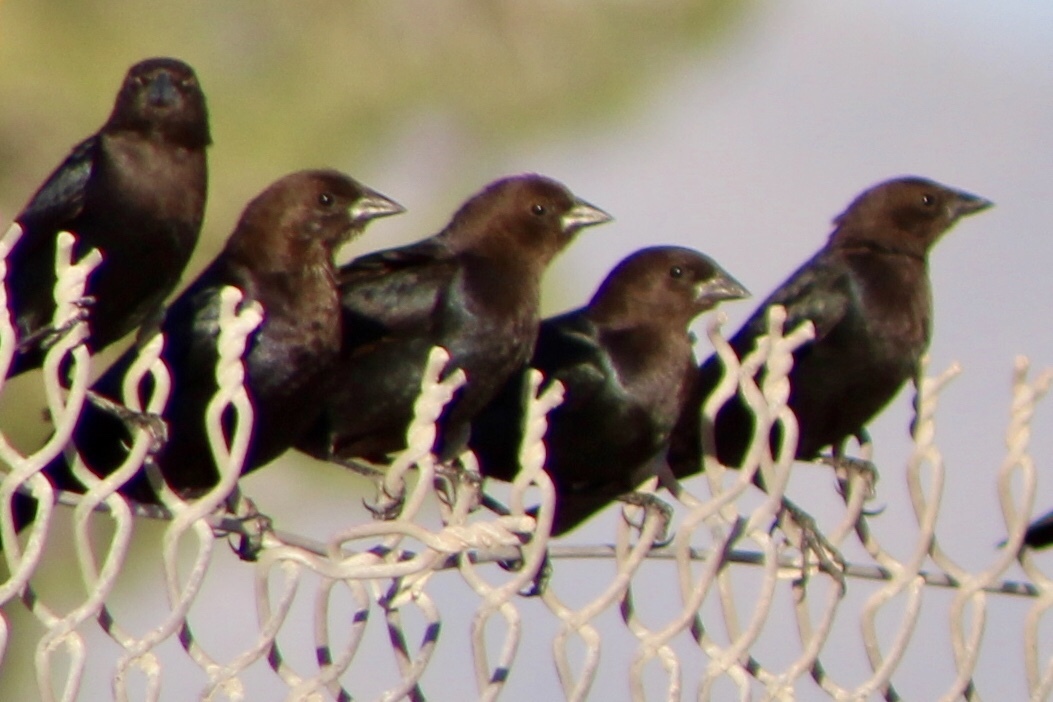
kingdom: Animalia
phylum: Chordata
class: Aves
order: Passeriformes
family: Icteridae
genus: Molothrus
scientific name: Molothrus ater
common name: Brown-headed cowbird
